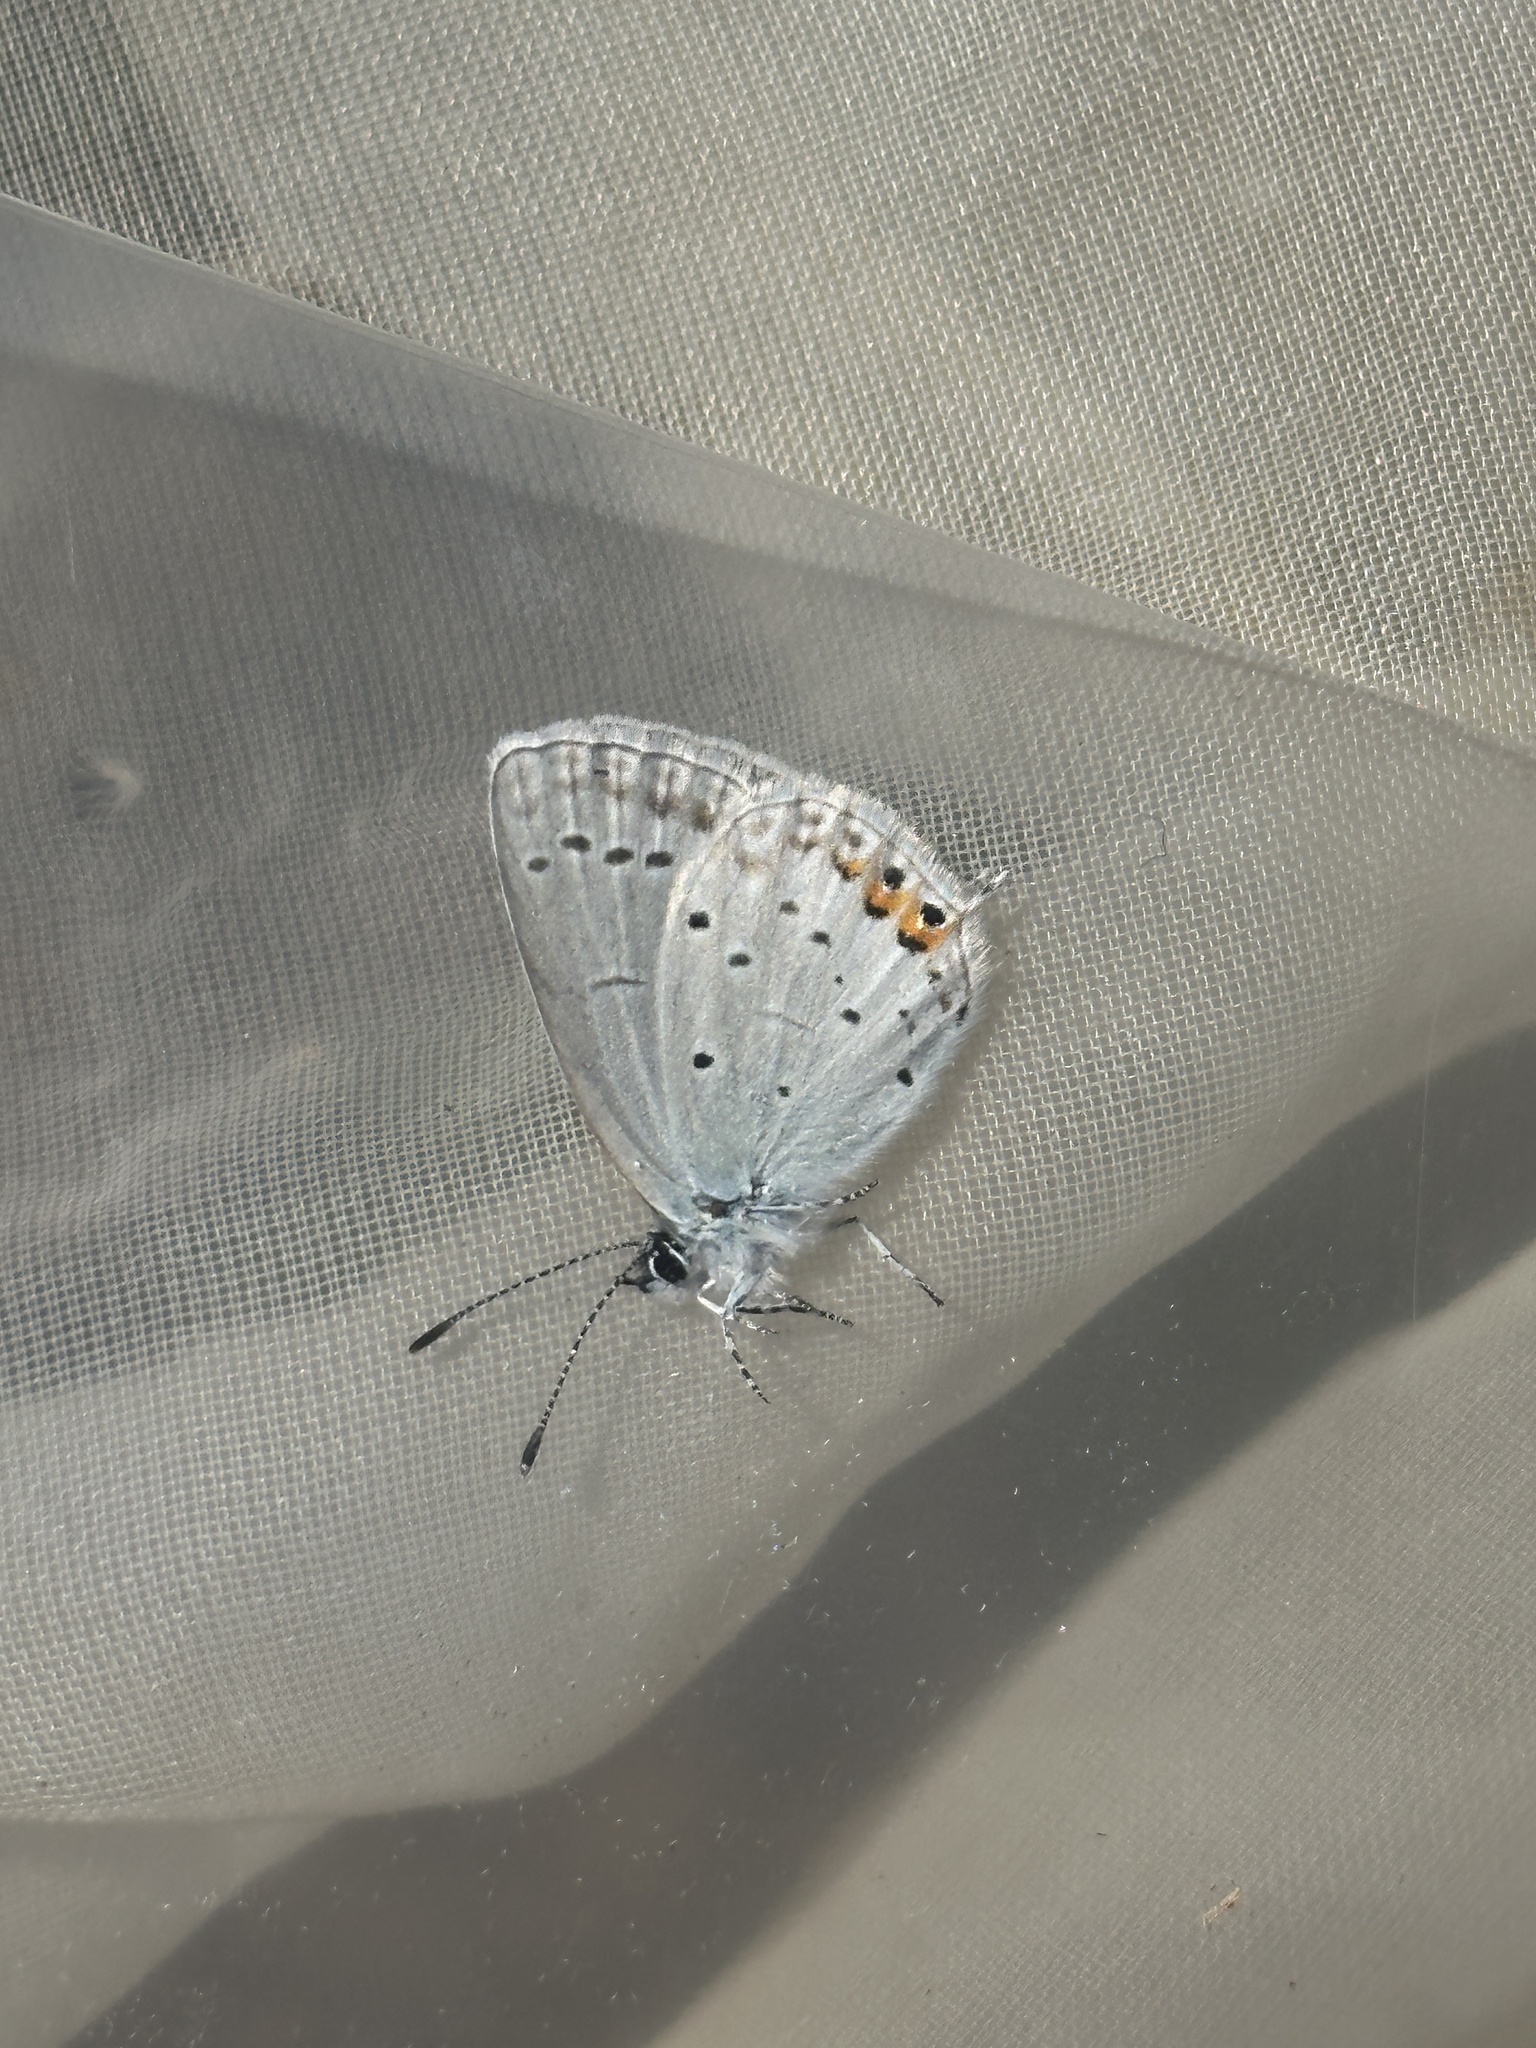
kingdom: Animalia
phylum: Arthropoda
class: Insecta
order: Lepidoptera
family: Lycaenidae
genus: Elkalyce
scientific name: Elkalyce argiades
